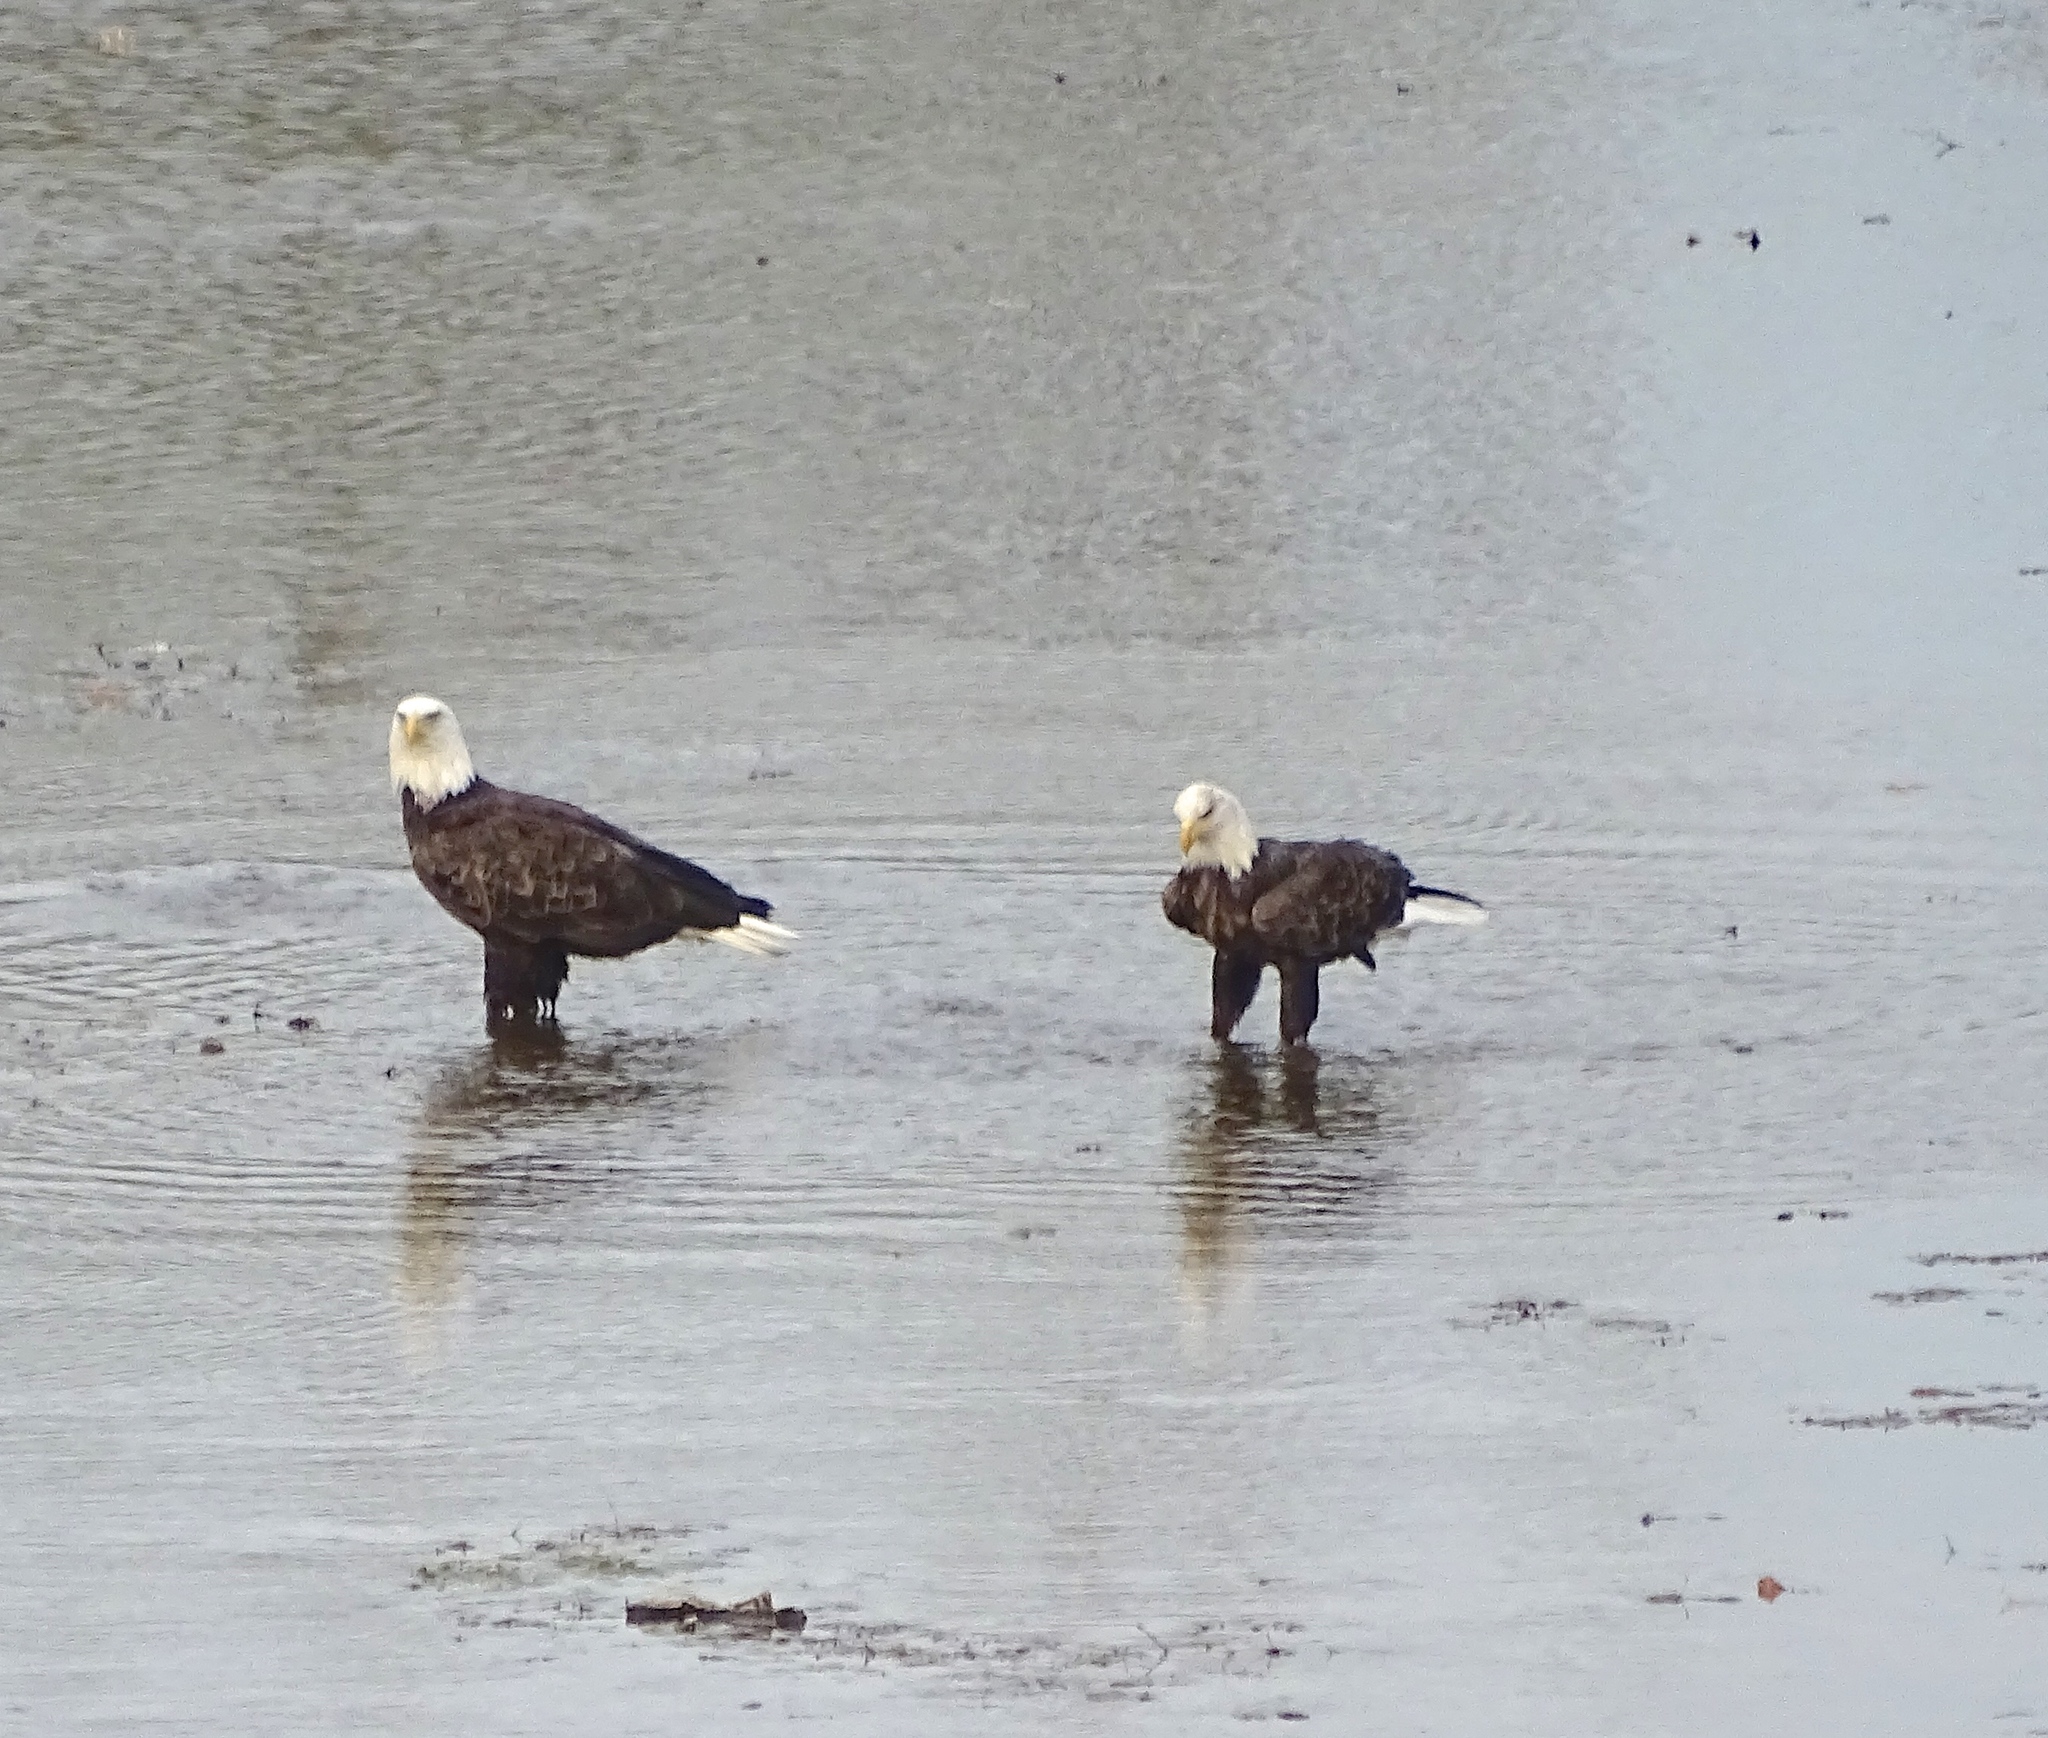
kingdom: Animalia
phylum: Chordata
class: Aves
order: Accipitriformes
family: Accipitridae
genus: Haliaeetus
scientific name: Haliaeetus leucocephalus
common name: Bald eagle
